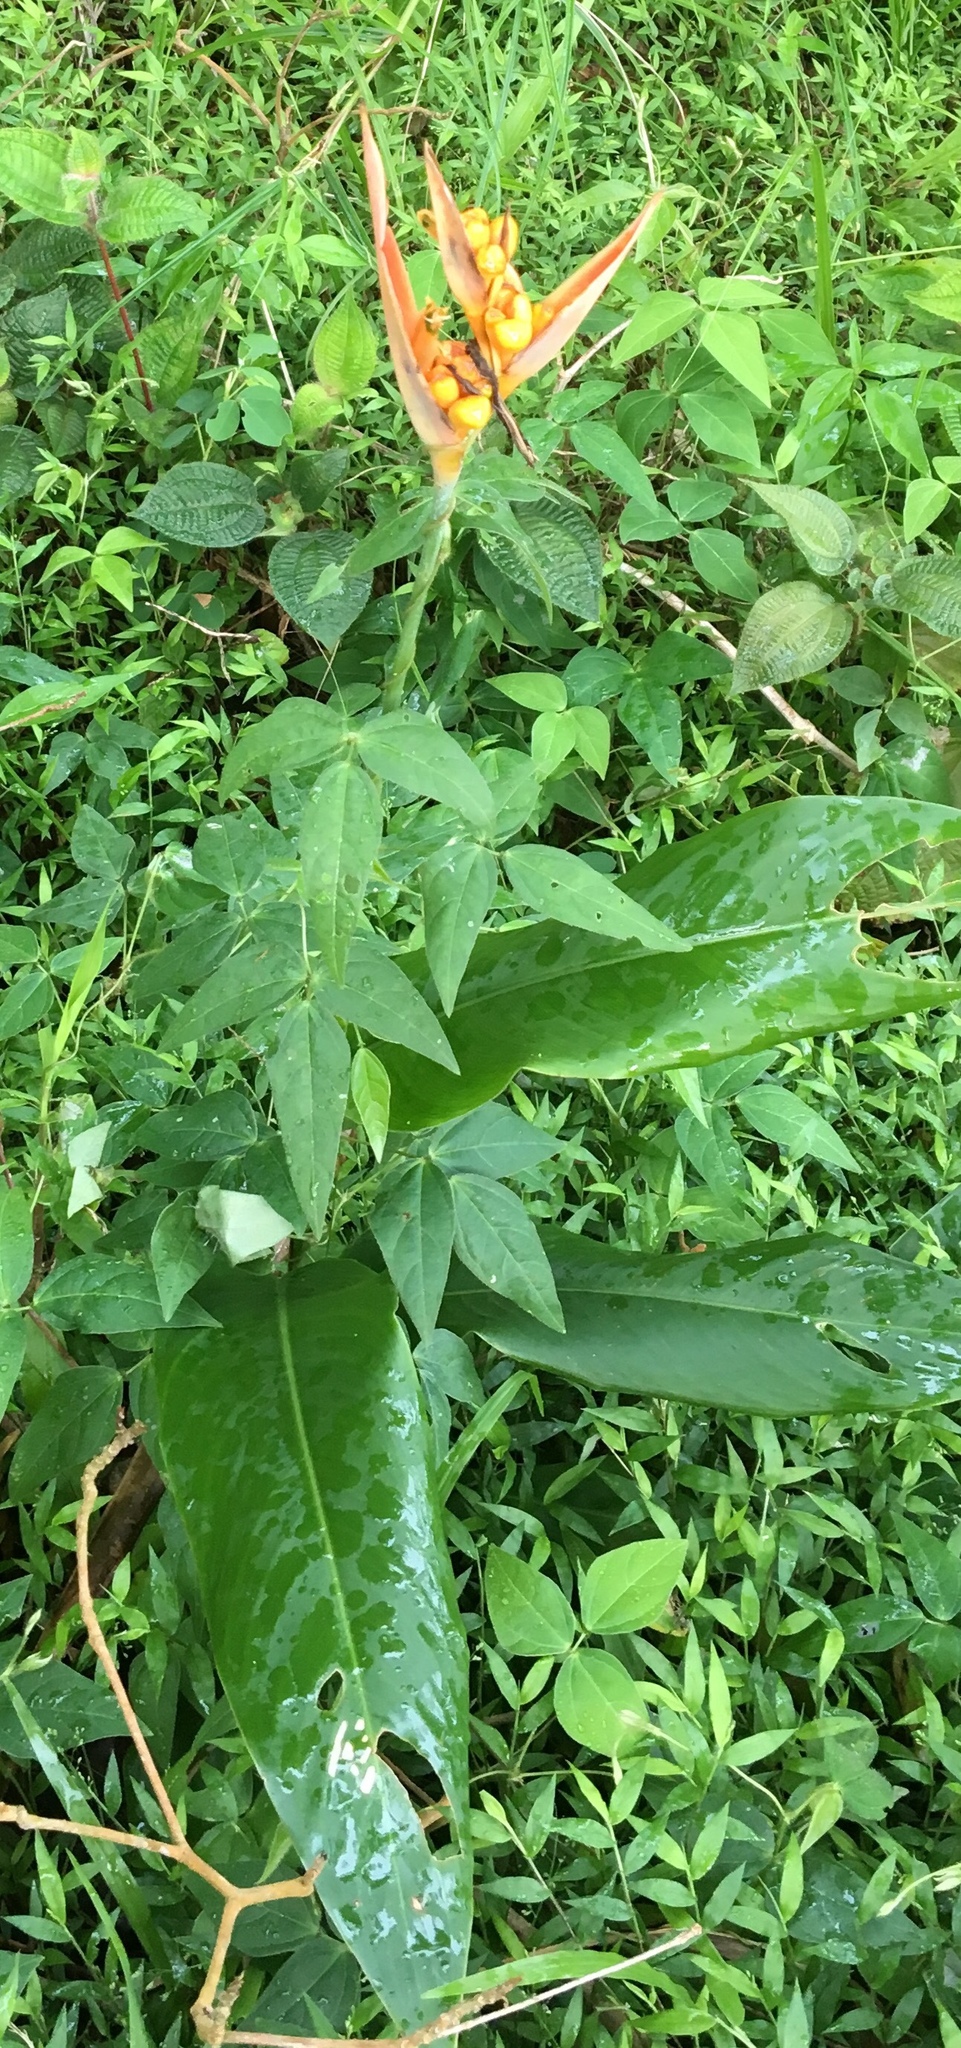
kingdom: Plantae
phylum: Tracheophyta
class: Liliopsida
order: Zingiberales
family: Heliconiaceae
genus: Heliconia
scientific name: Heliconia psittacorum
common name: Parrot's-flower
